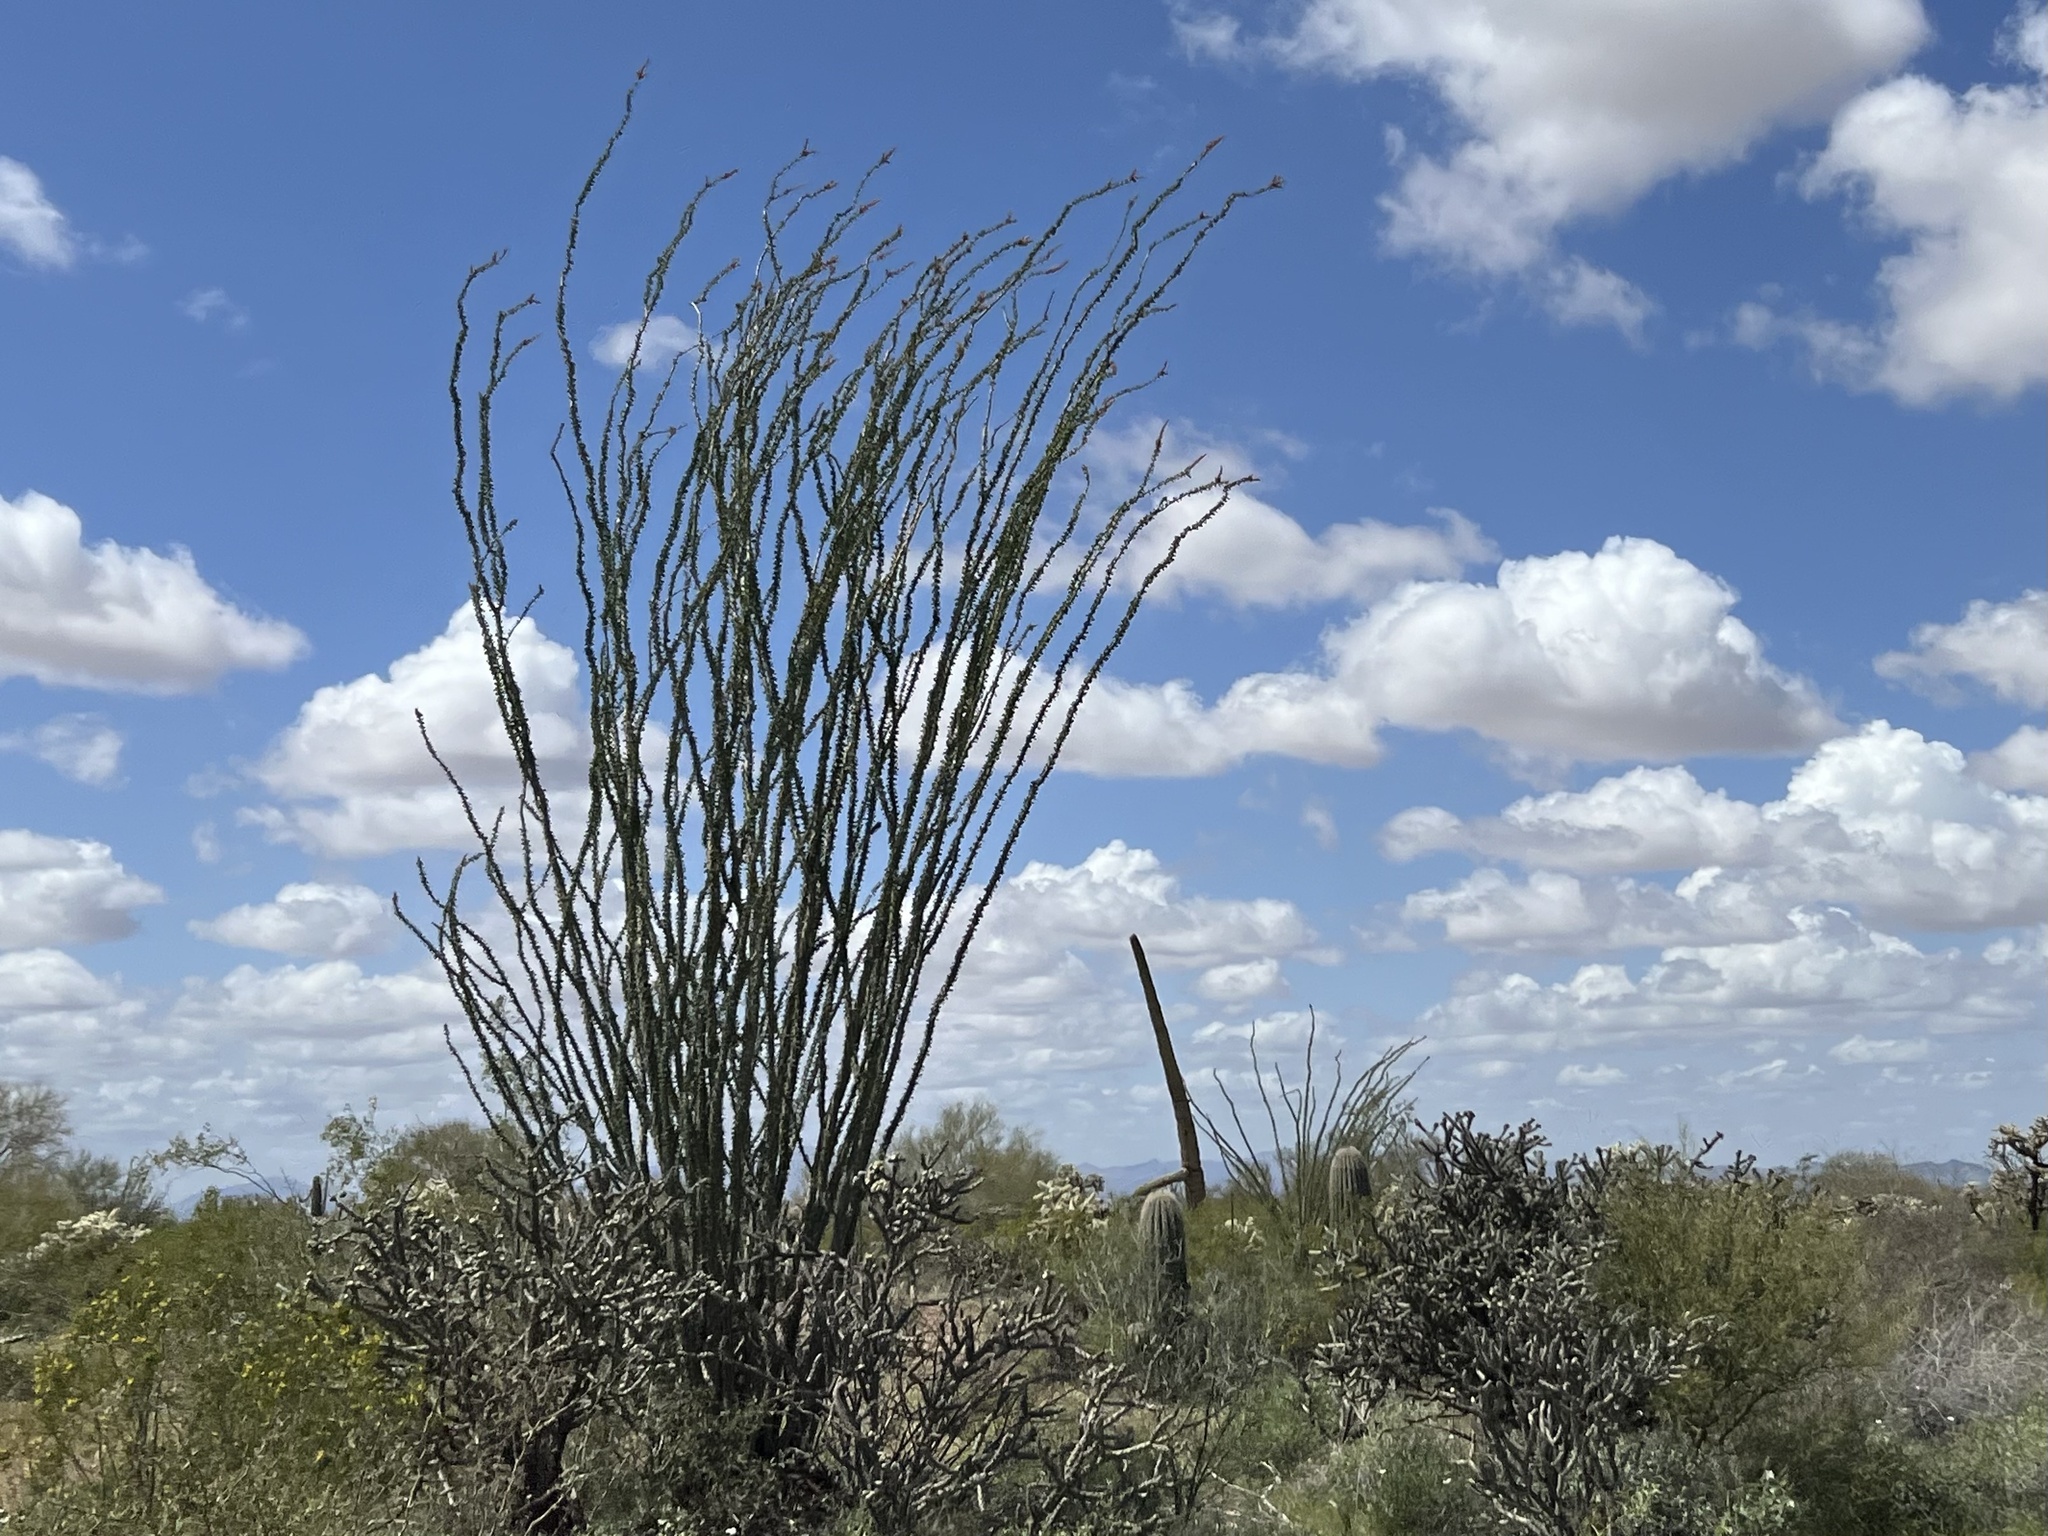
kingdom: Plantae
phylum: Tracheophyta
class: Magnoliopsida
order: Ericales
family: Fouquieriaceae
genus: Fouquieria
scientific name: Fouquieria splendens
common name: Vine-cactus
